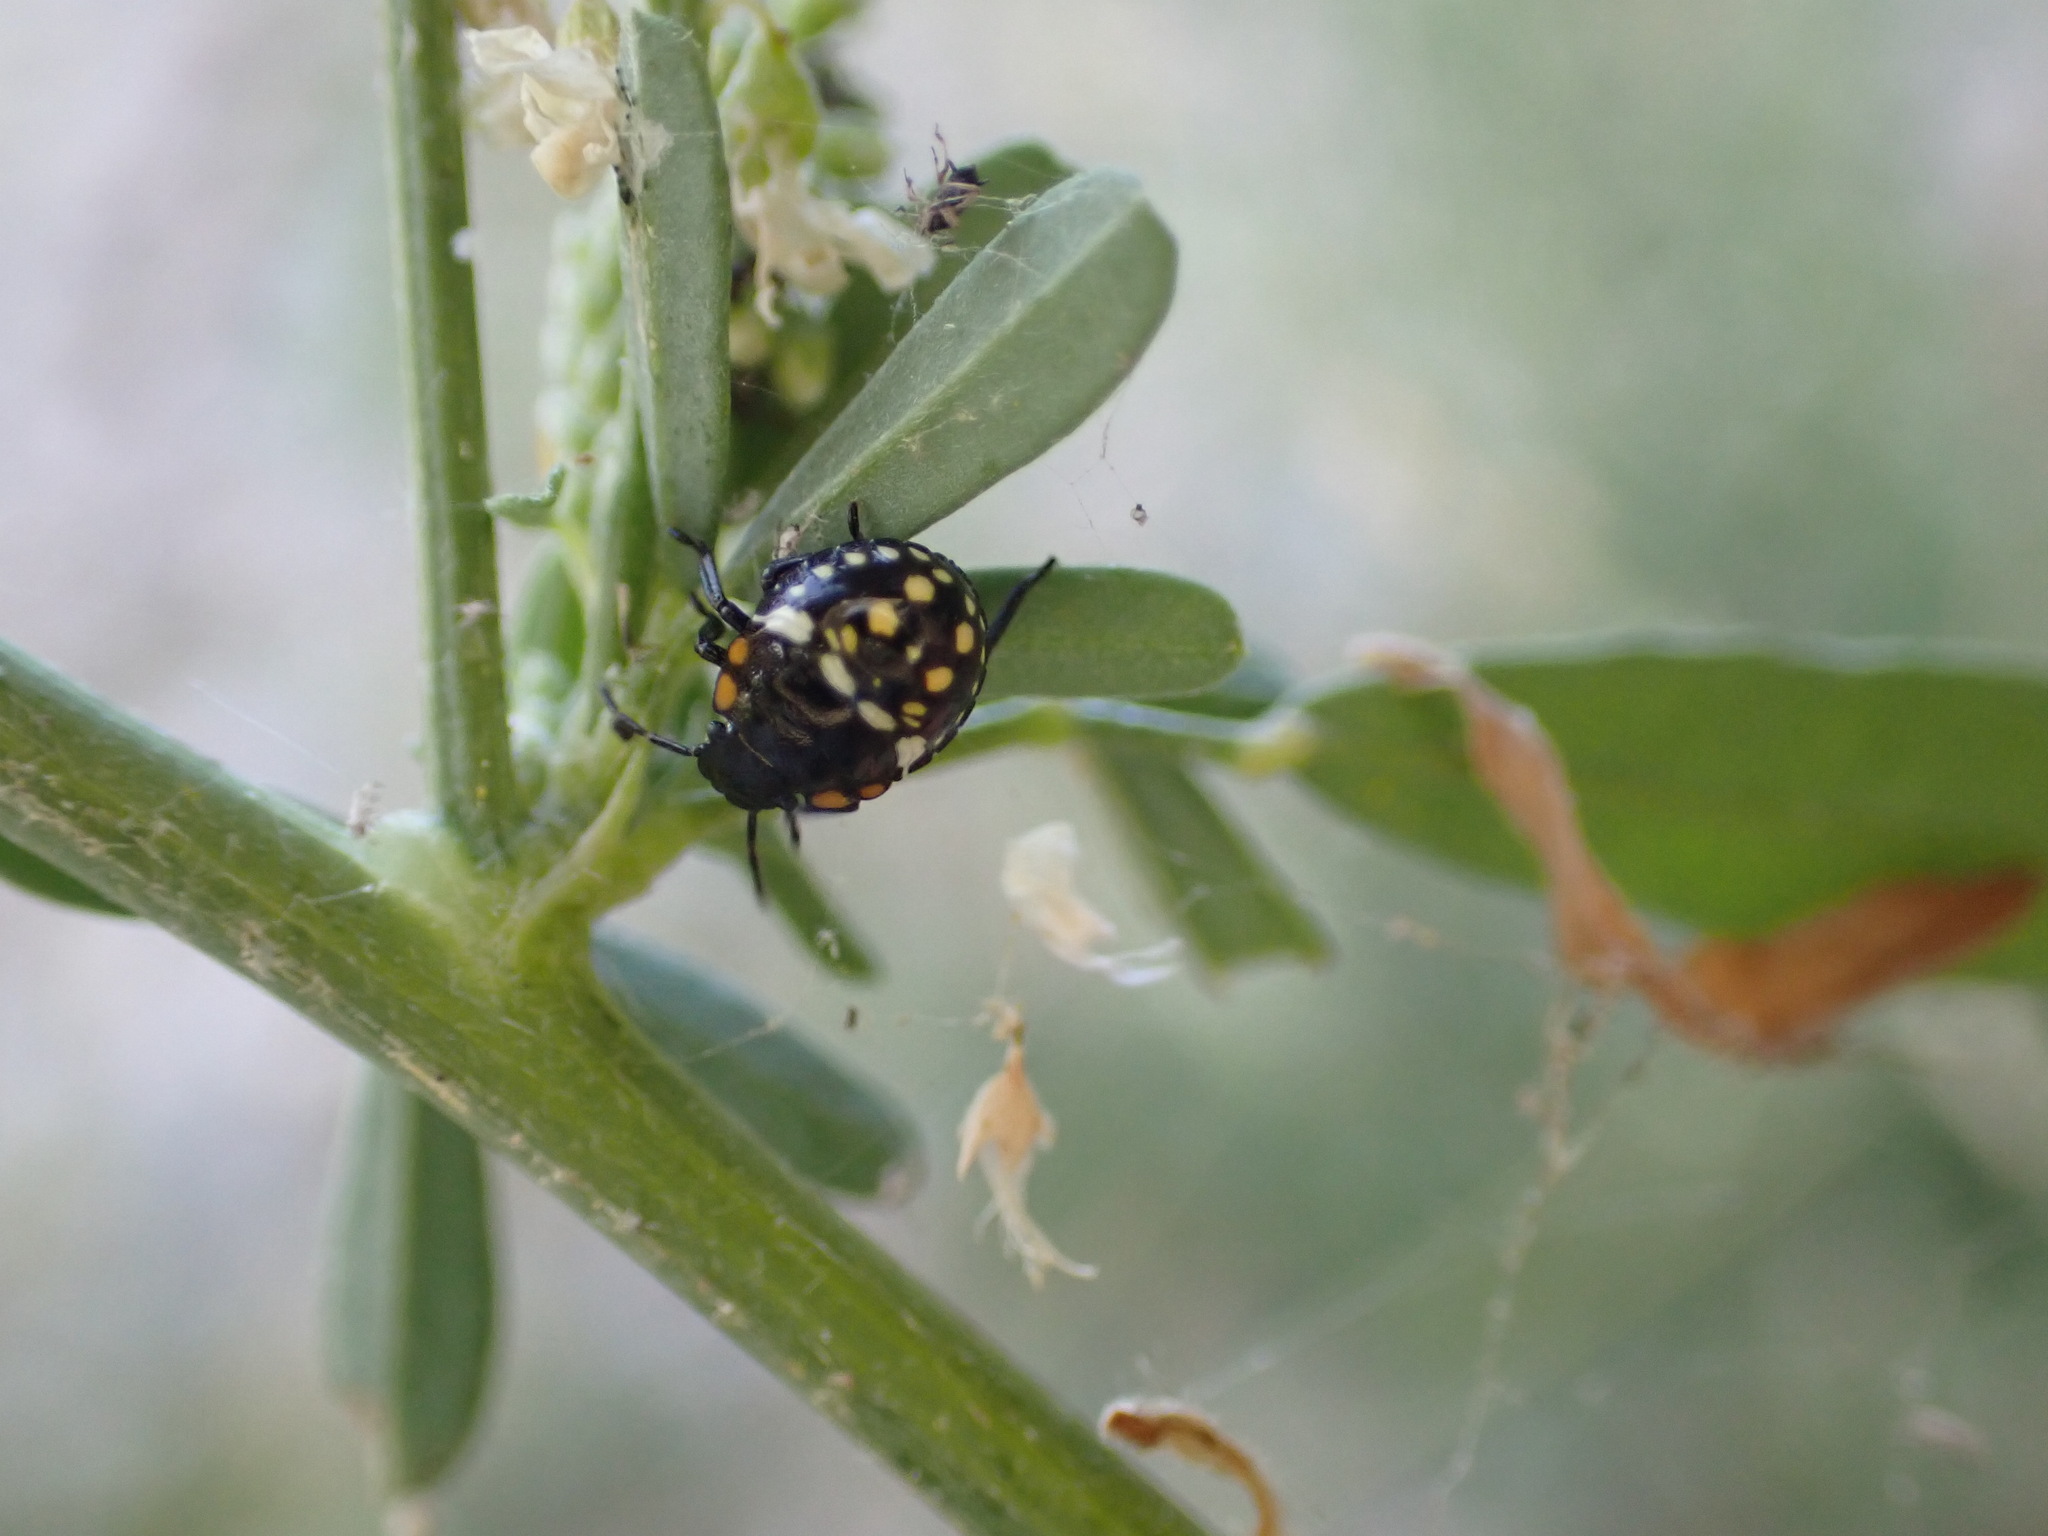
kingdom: Animalia
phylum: Arthropoda
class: Insecta
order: Hemiptera
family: Pentatomidae
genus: Nezara
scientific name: Nezara viridula
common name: Southern green stink bug
